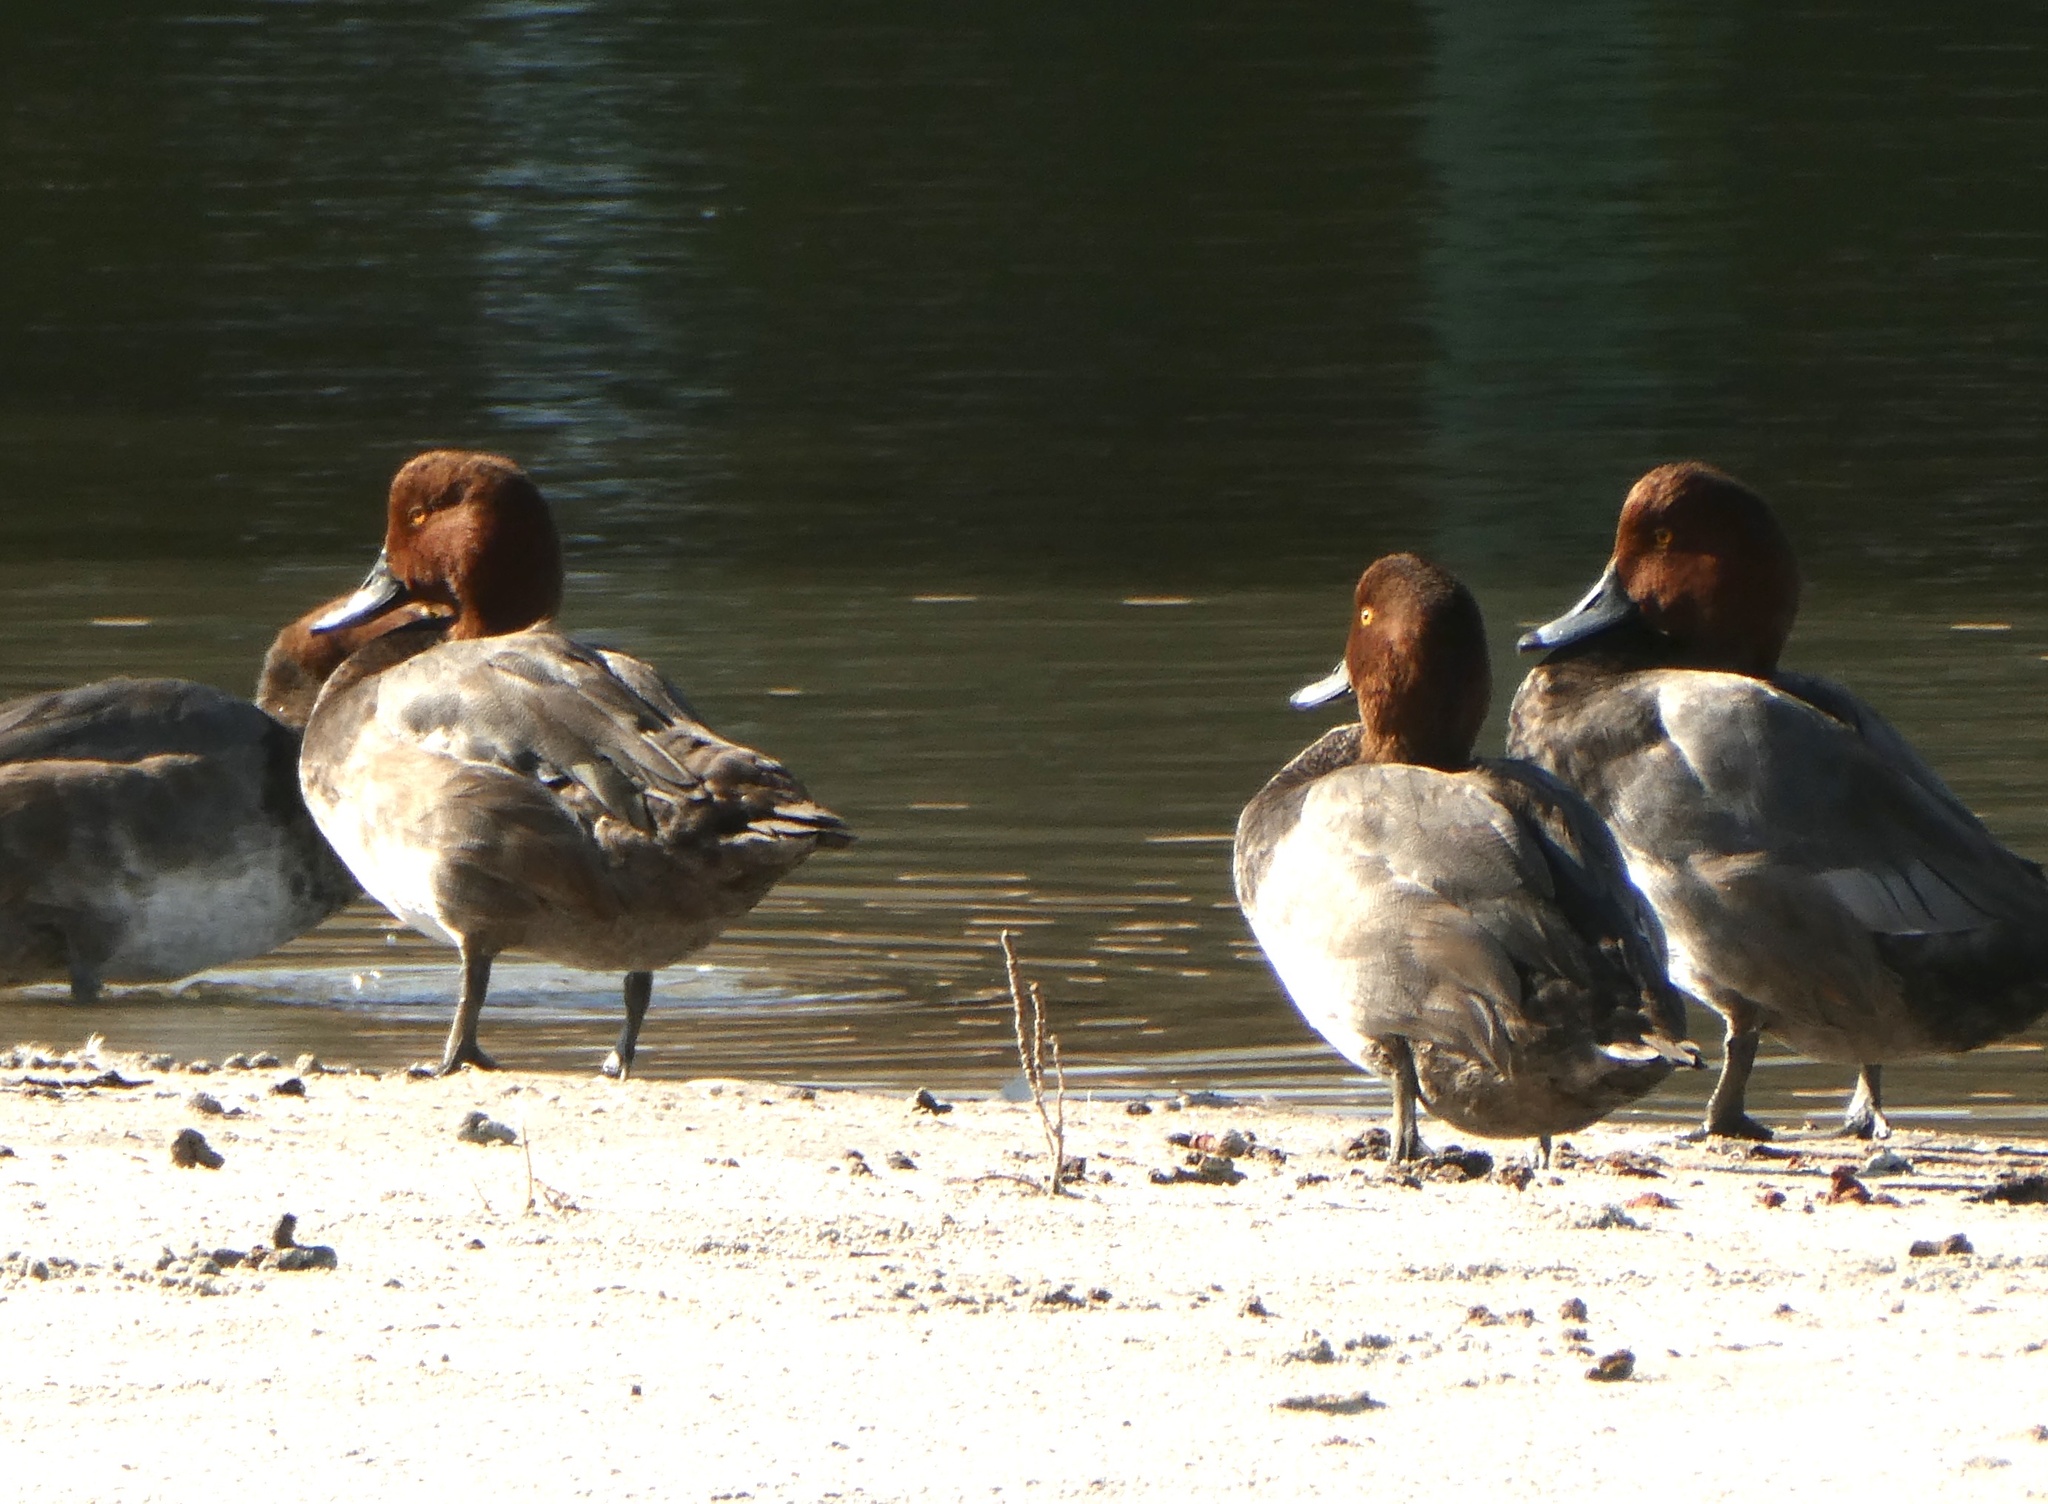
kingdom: Animalia
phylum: Chordata
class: Aves
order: Anseriformes
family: Anatidae
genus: Aythya
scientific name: Aythya americana
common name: Redhead
